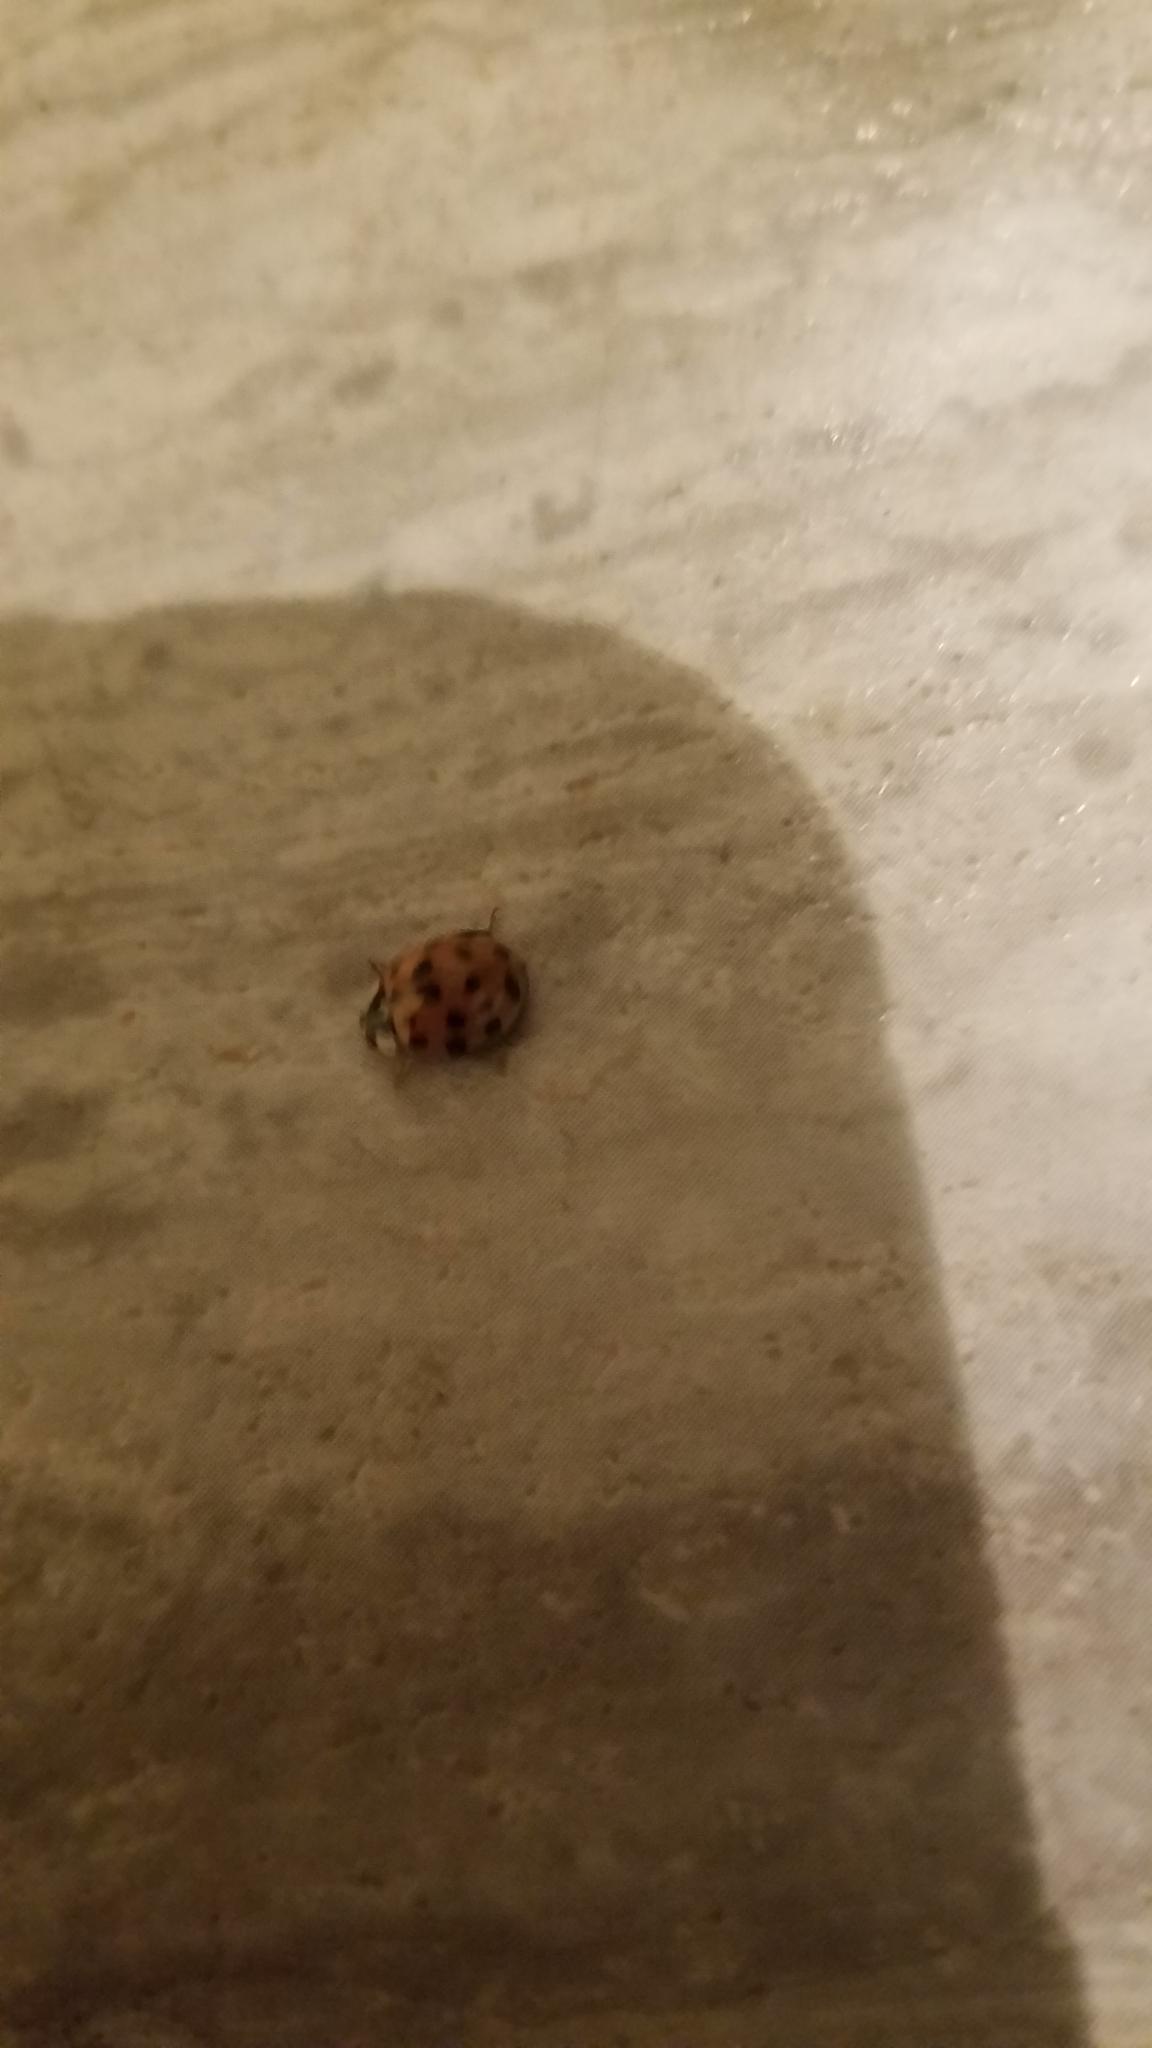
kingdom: Animalia
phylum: Arthropoda
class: Insecta
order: Coleoptera
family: Coccinellidae
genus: Harmonia
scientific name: Harmonia axyridis
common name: Harlequin ladybird
